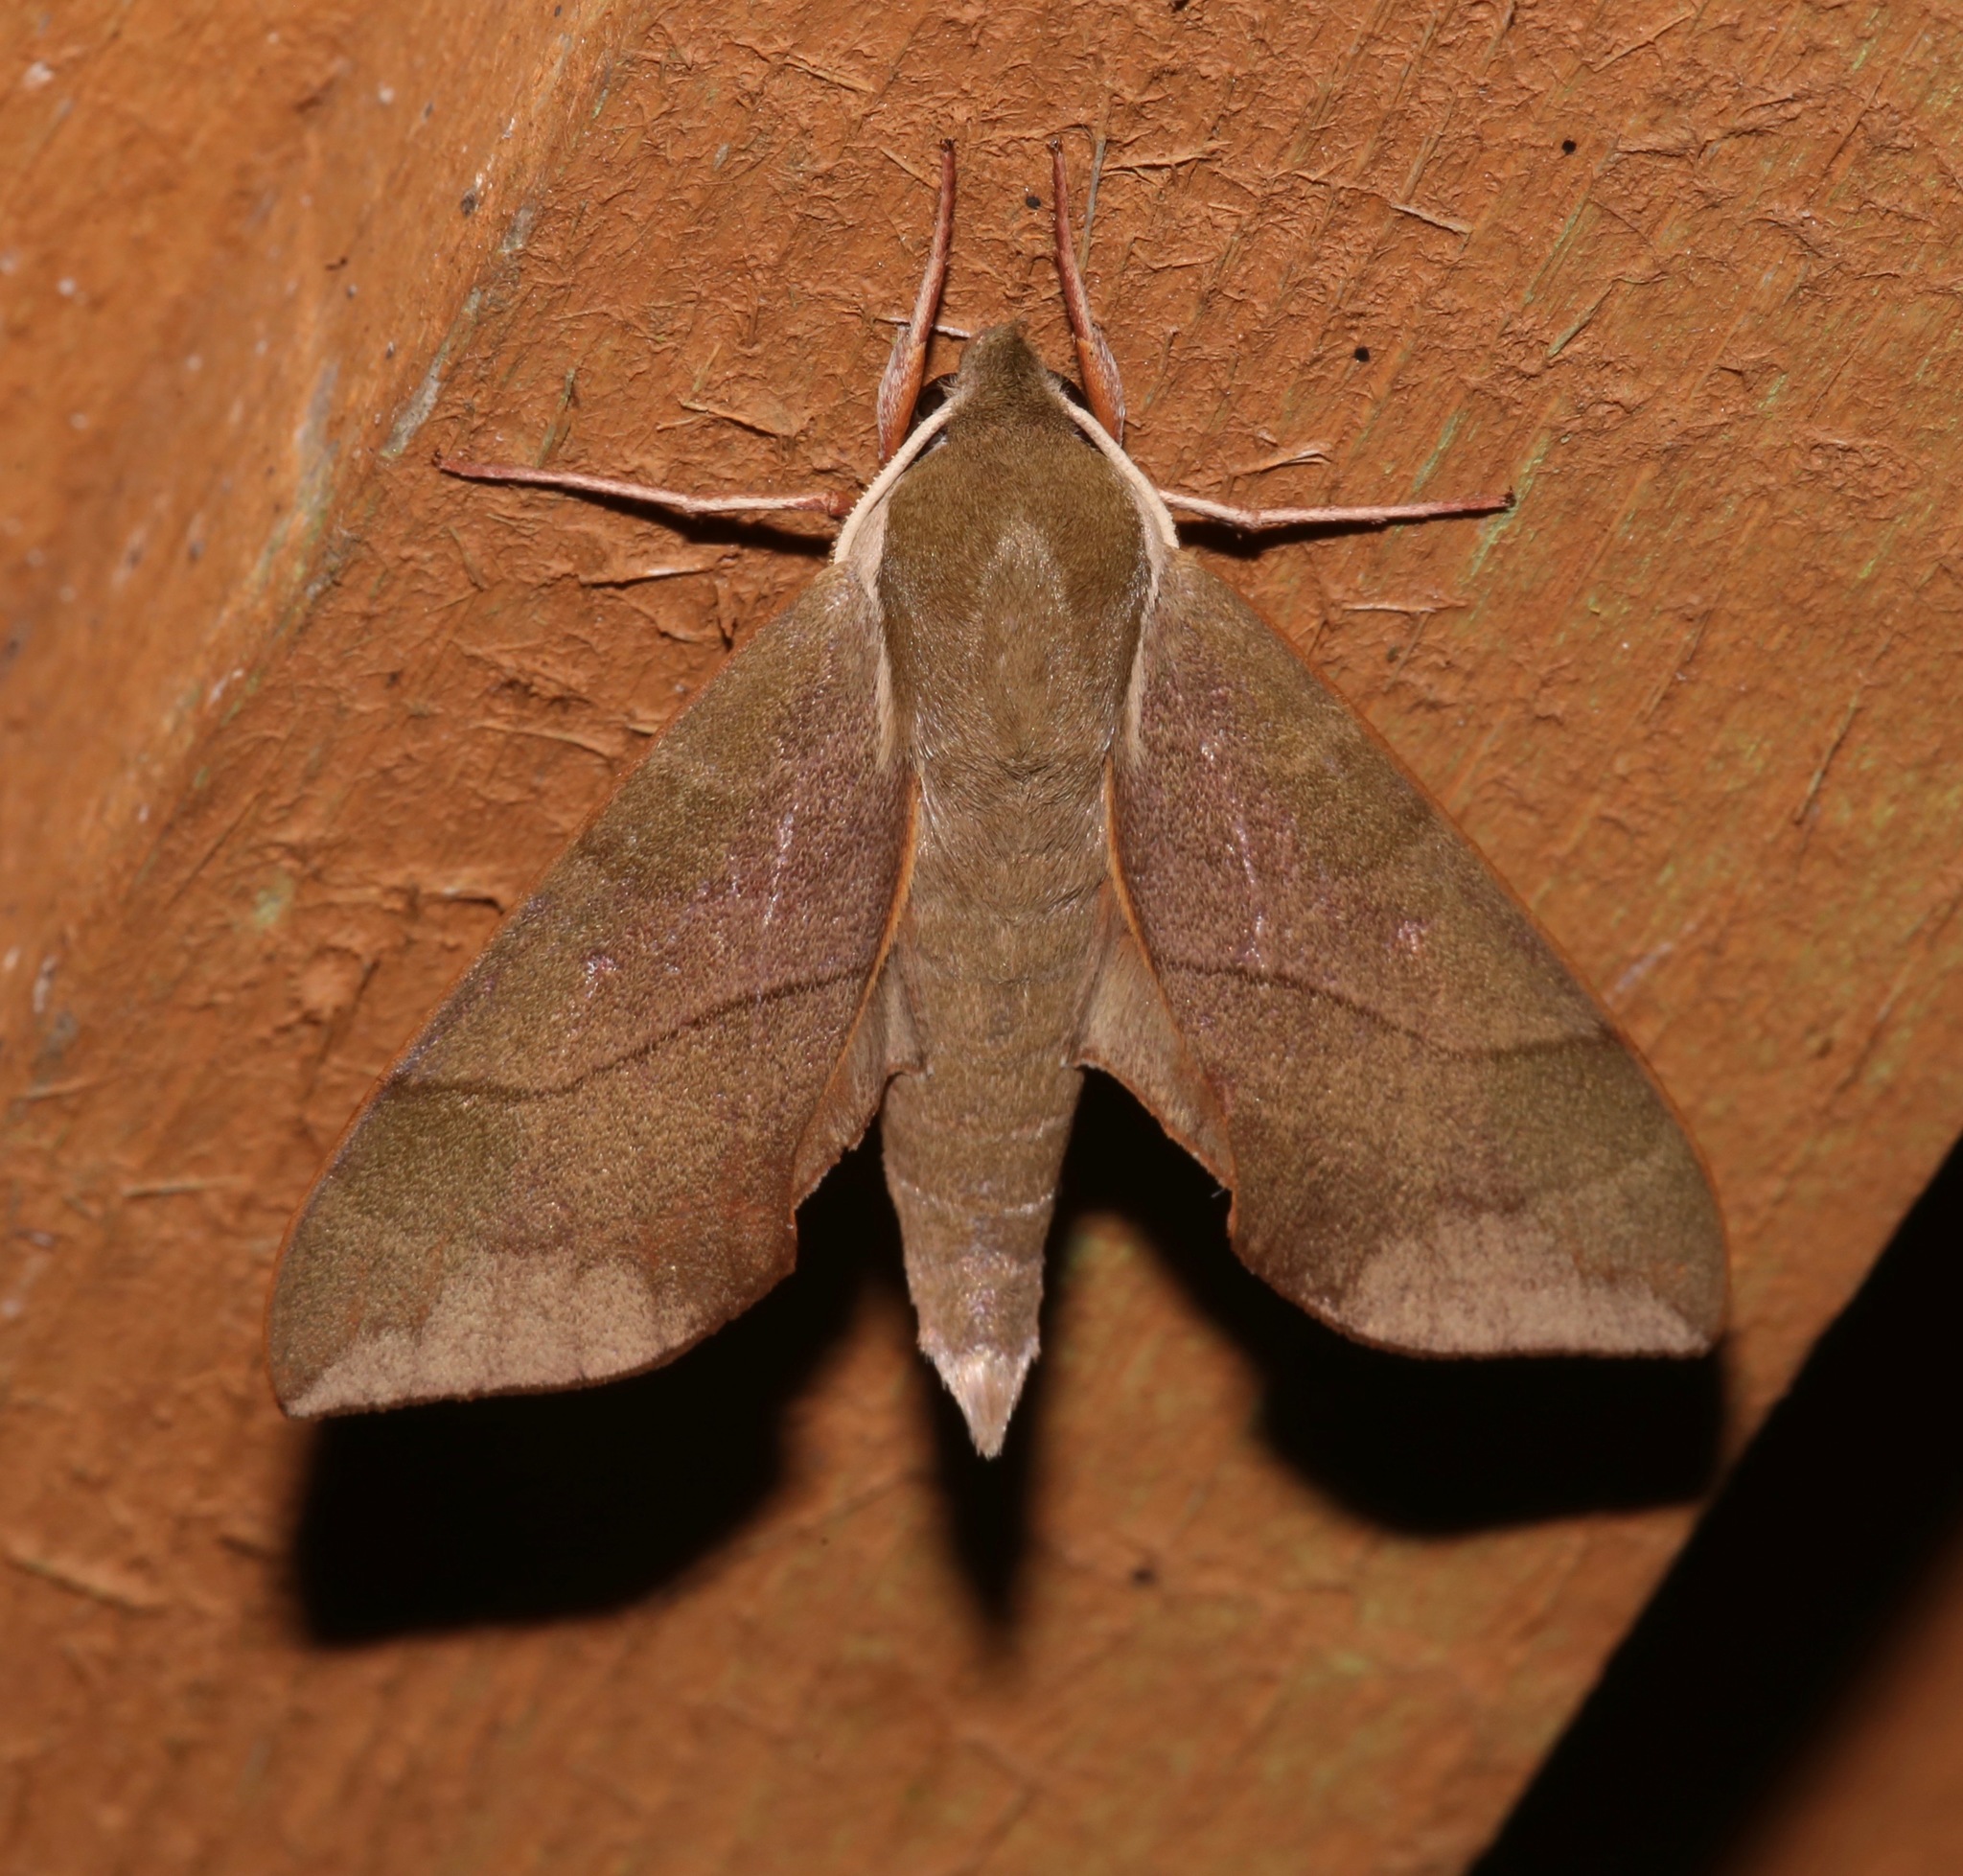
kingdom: Animalia
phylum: Arthropoda
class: Insecta
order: Lepidoptera
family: Sphingidae
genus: Darapsa
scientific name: Darapsa myron
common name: Hog sphinx
